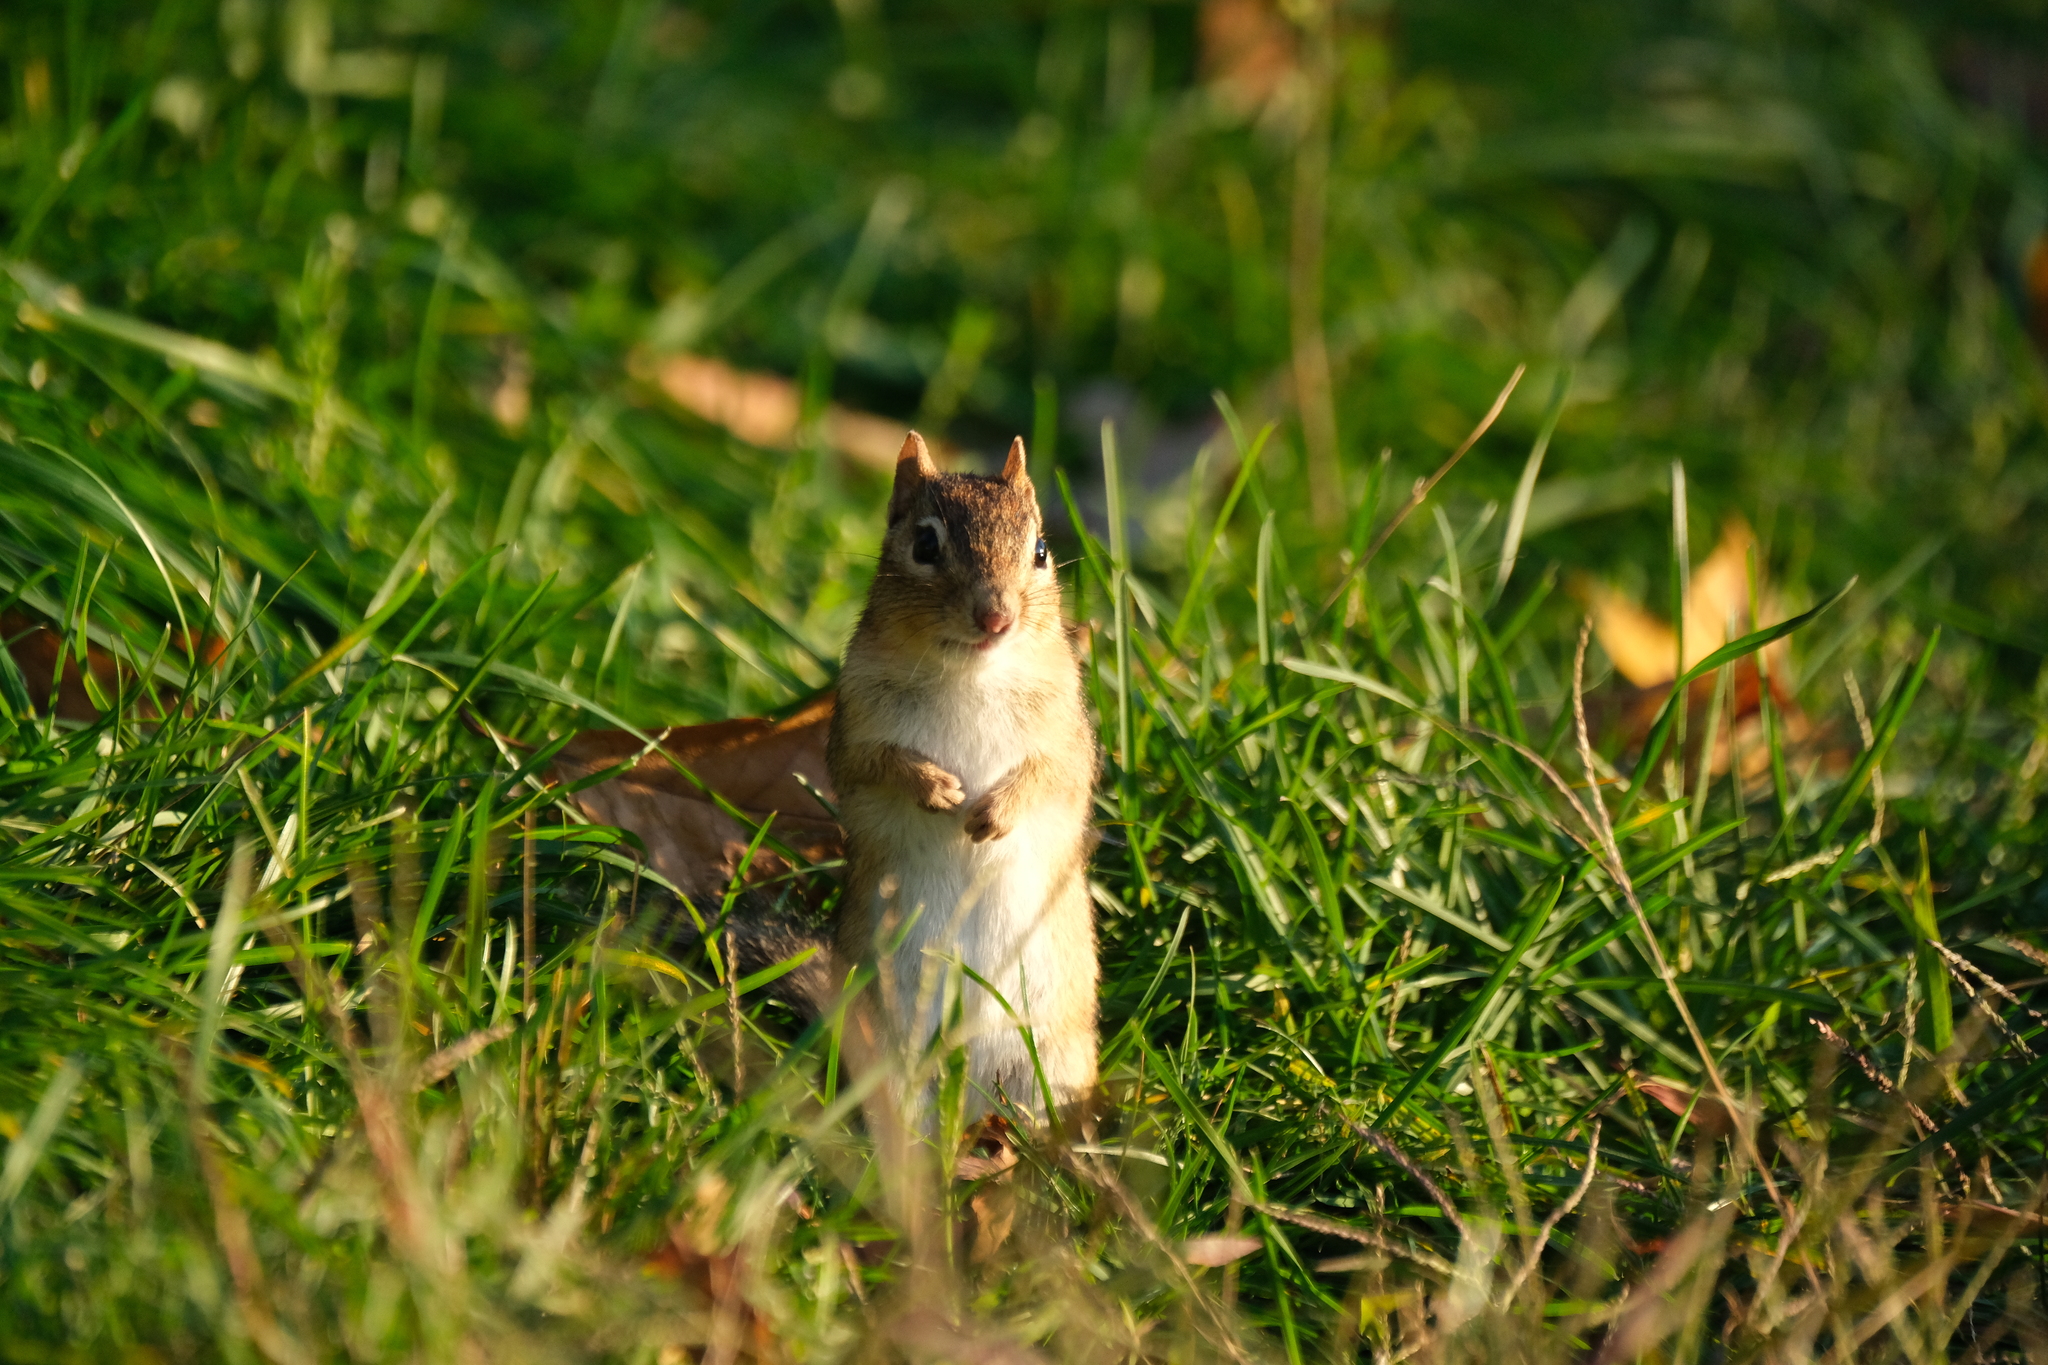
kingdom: Animalia
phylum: Chordata
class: Mammalia
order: Rodentia
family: Sciuridae
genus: Tamias
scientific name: Tamias striatus
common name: Eastern chipmunk
